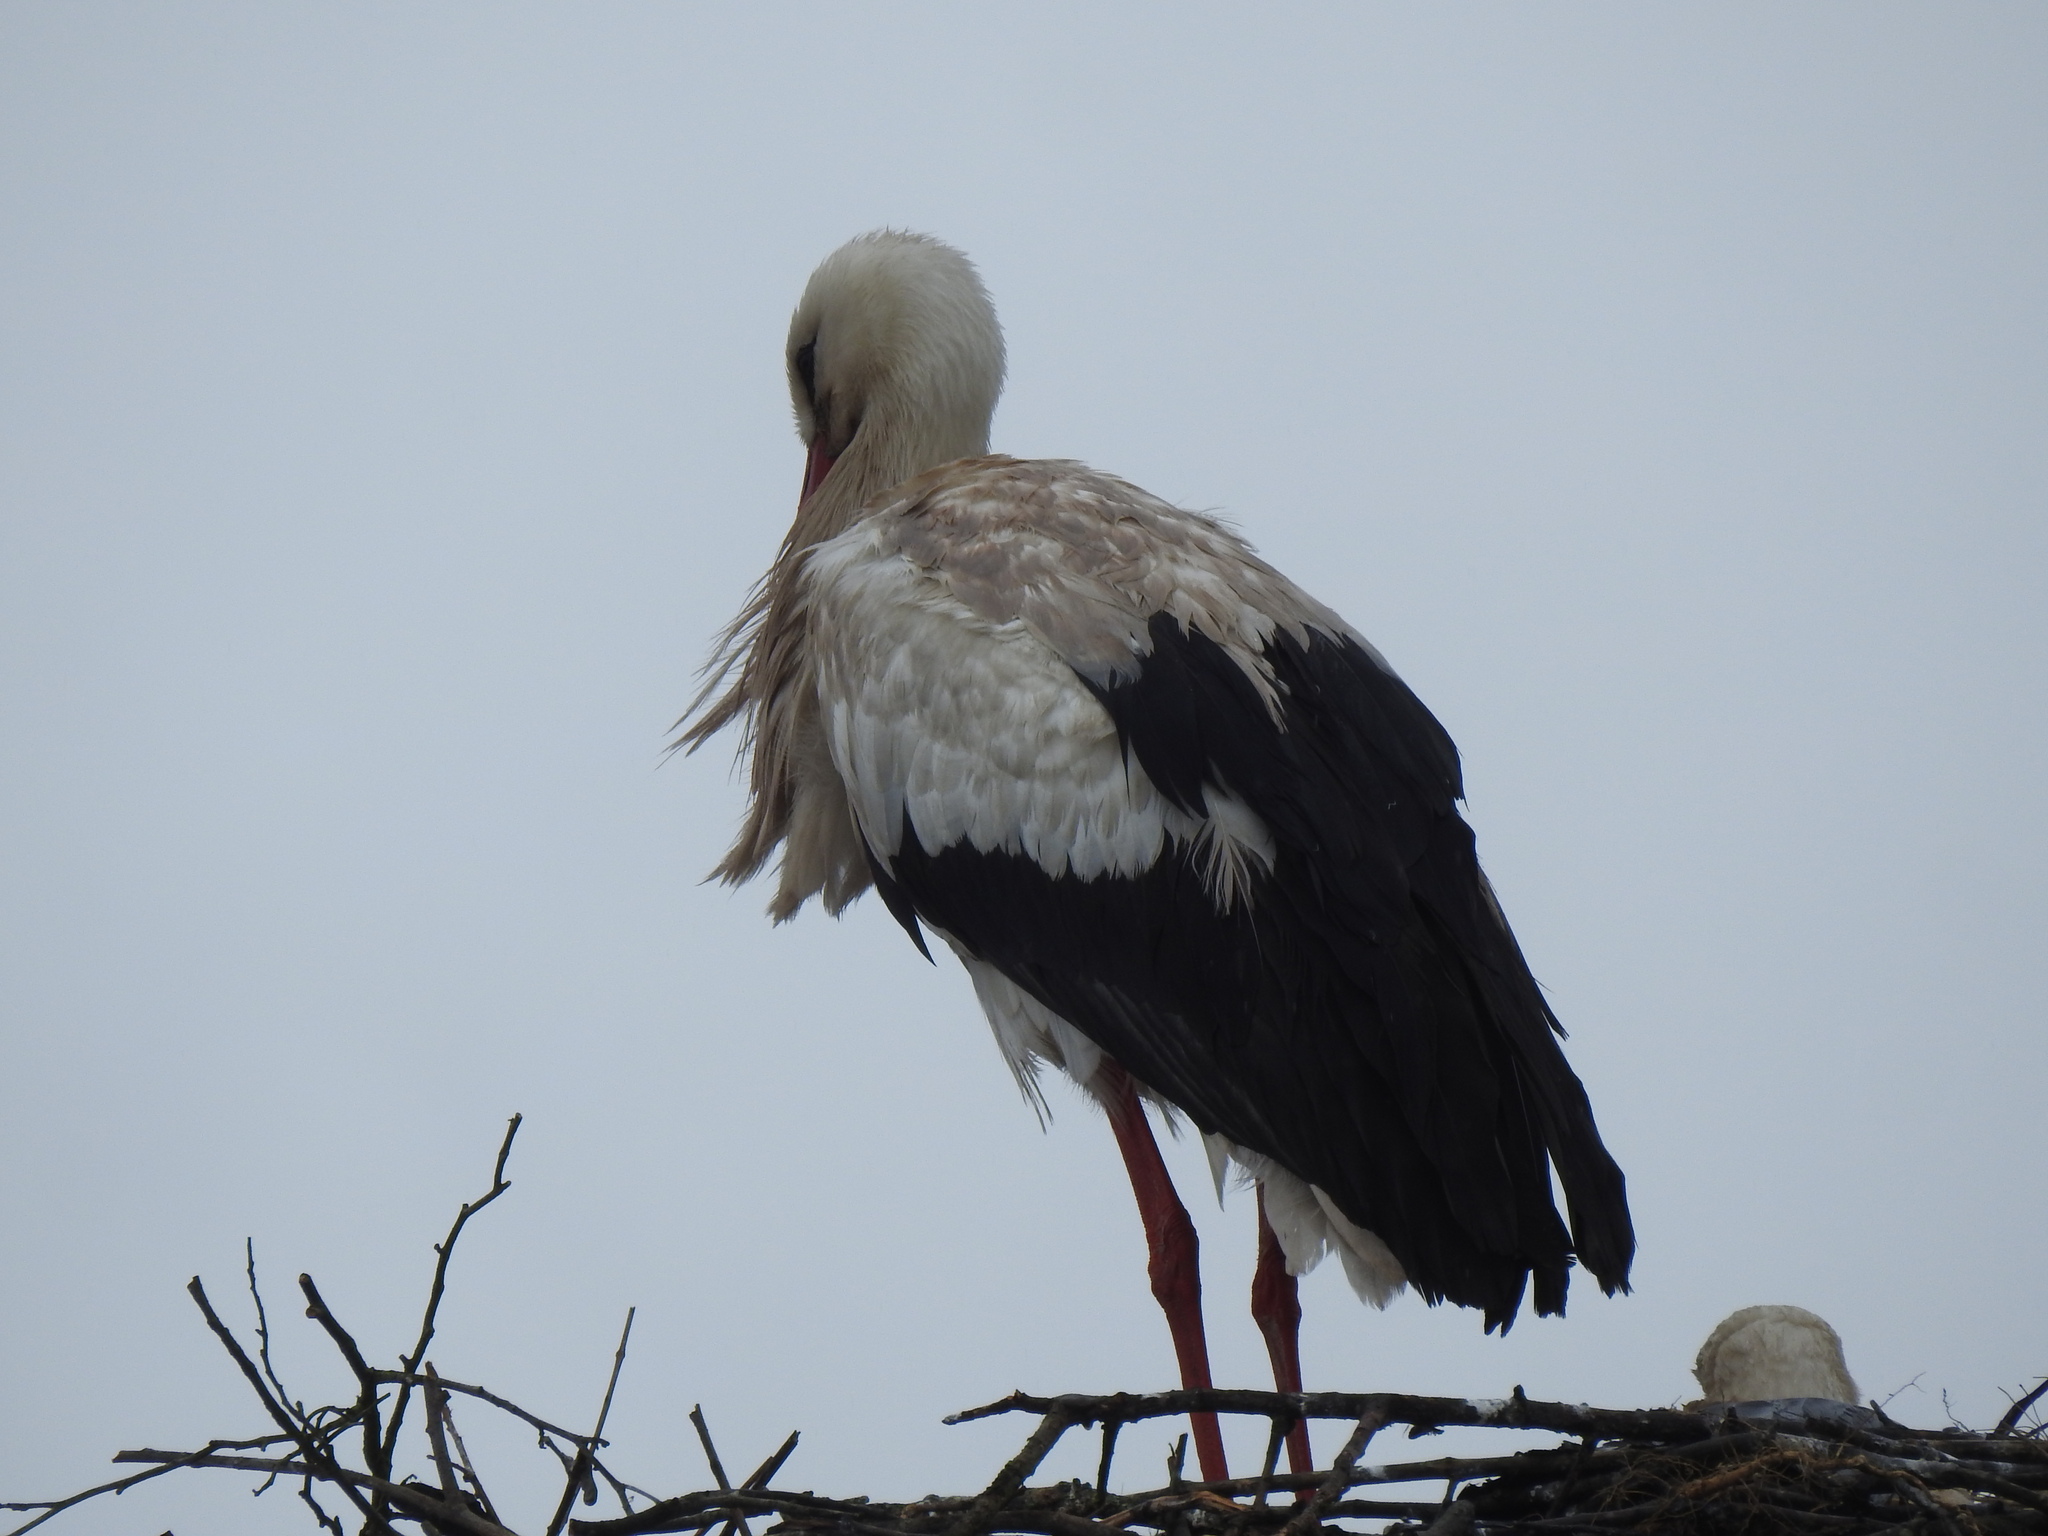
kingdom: Animalia
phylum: Chordata
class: Aves
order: Ciconiiformes
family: Ciconiidae
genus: Ciconia
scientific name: Ciconia ciconia
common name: White stork
